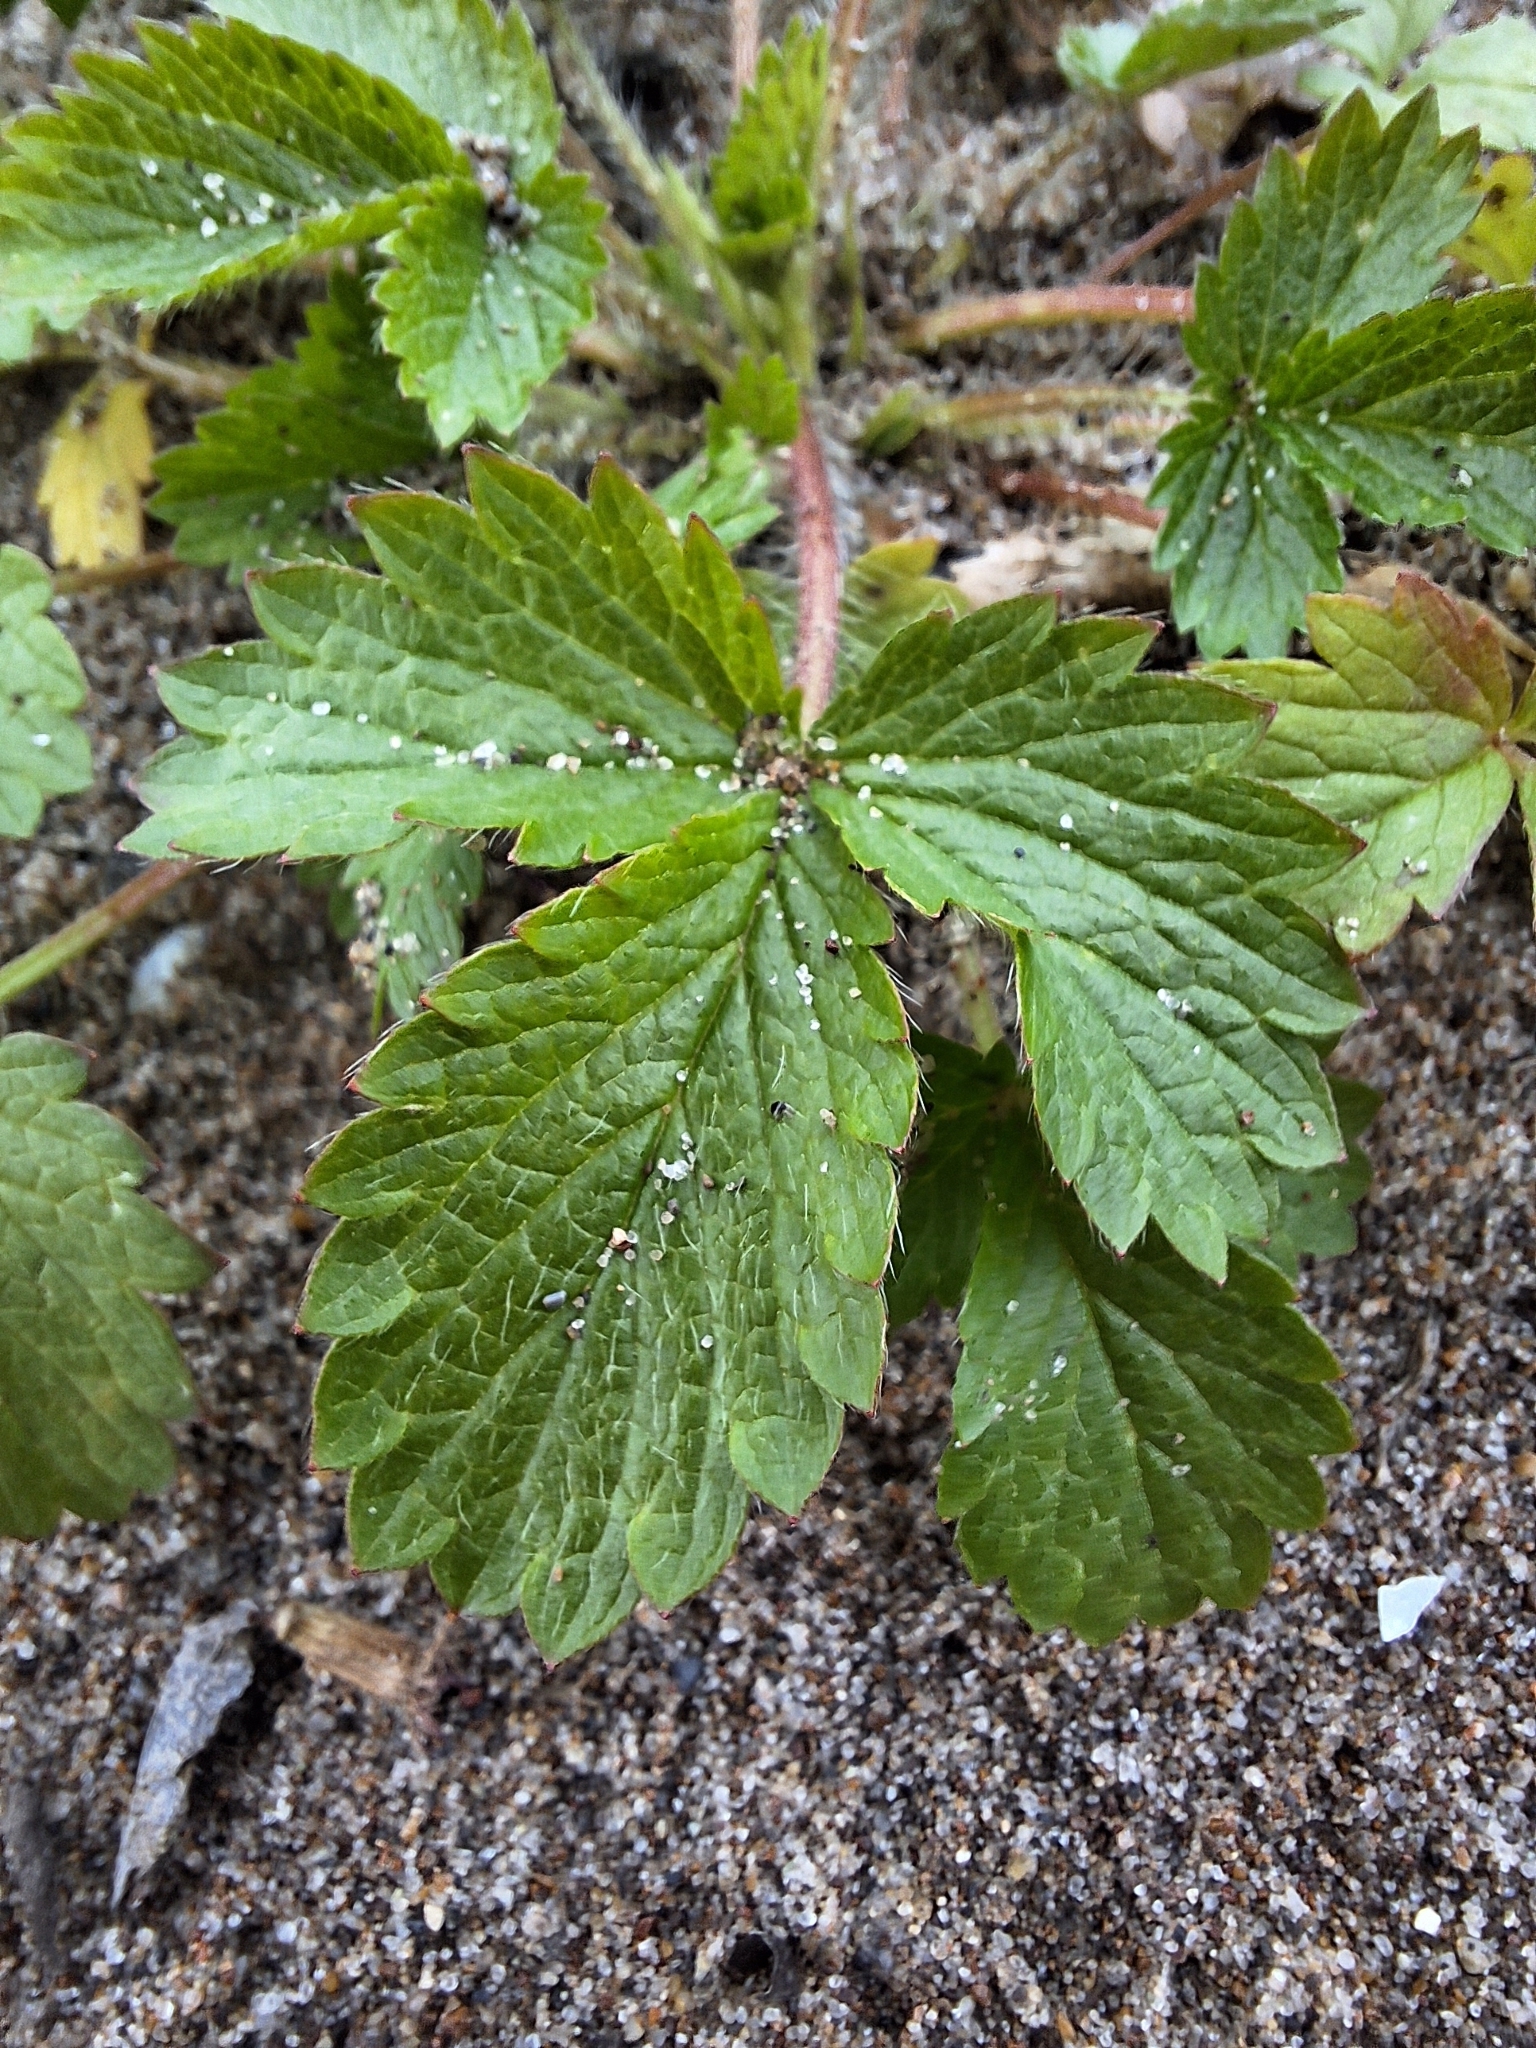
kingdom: Plantae
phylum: Tracheophyta
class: Magnoliopsida
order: Rosales
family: Rosaceae
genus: Potentilla
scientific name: Potentilla norvegica
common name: Ternate-leaved cinquefoil
